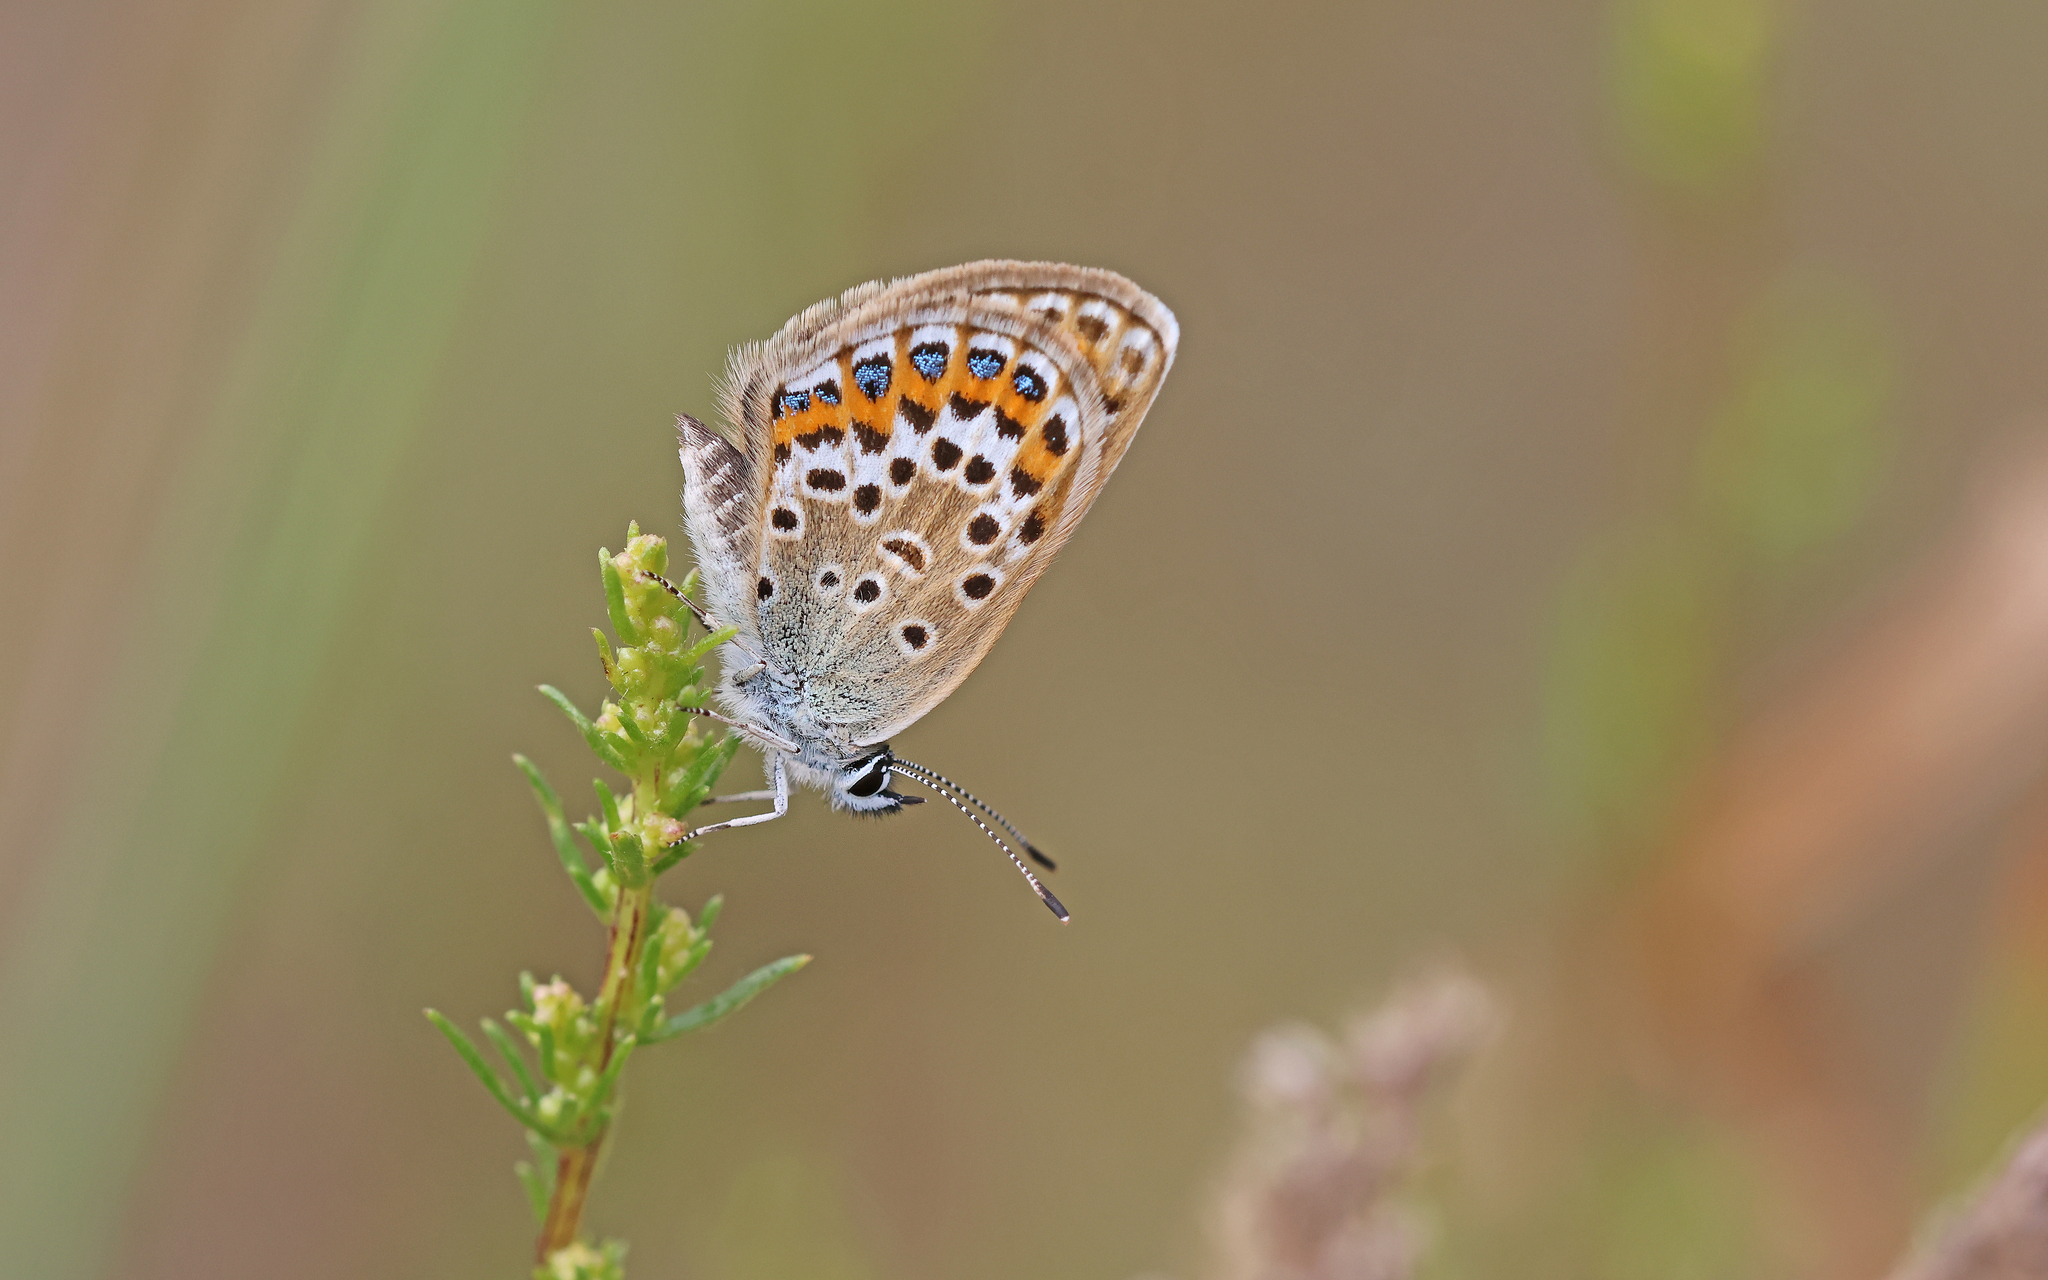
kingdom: Animalia
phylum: Arthropoda
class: Insecta
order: Lepidoptera
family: Lycaenidae
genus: Plebejus
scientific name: Plebejus argus
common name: Silver-studded blue
